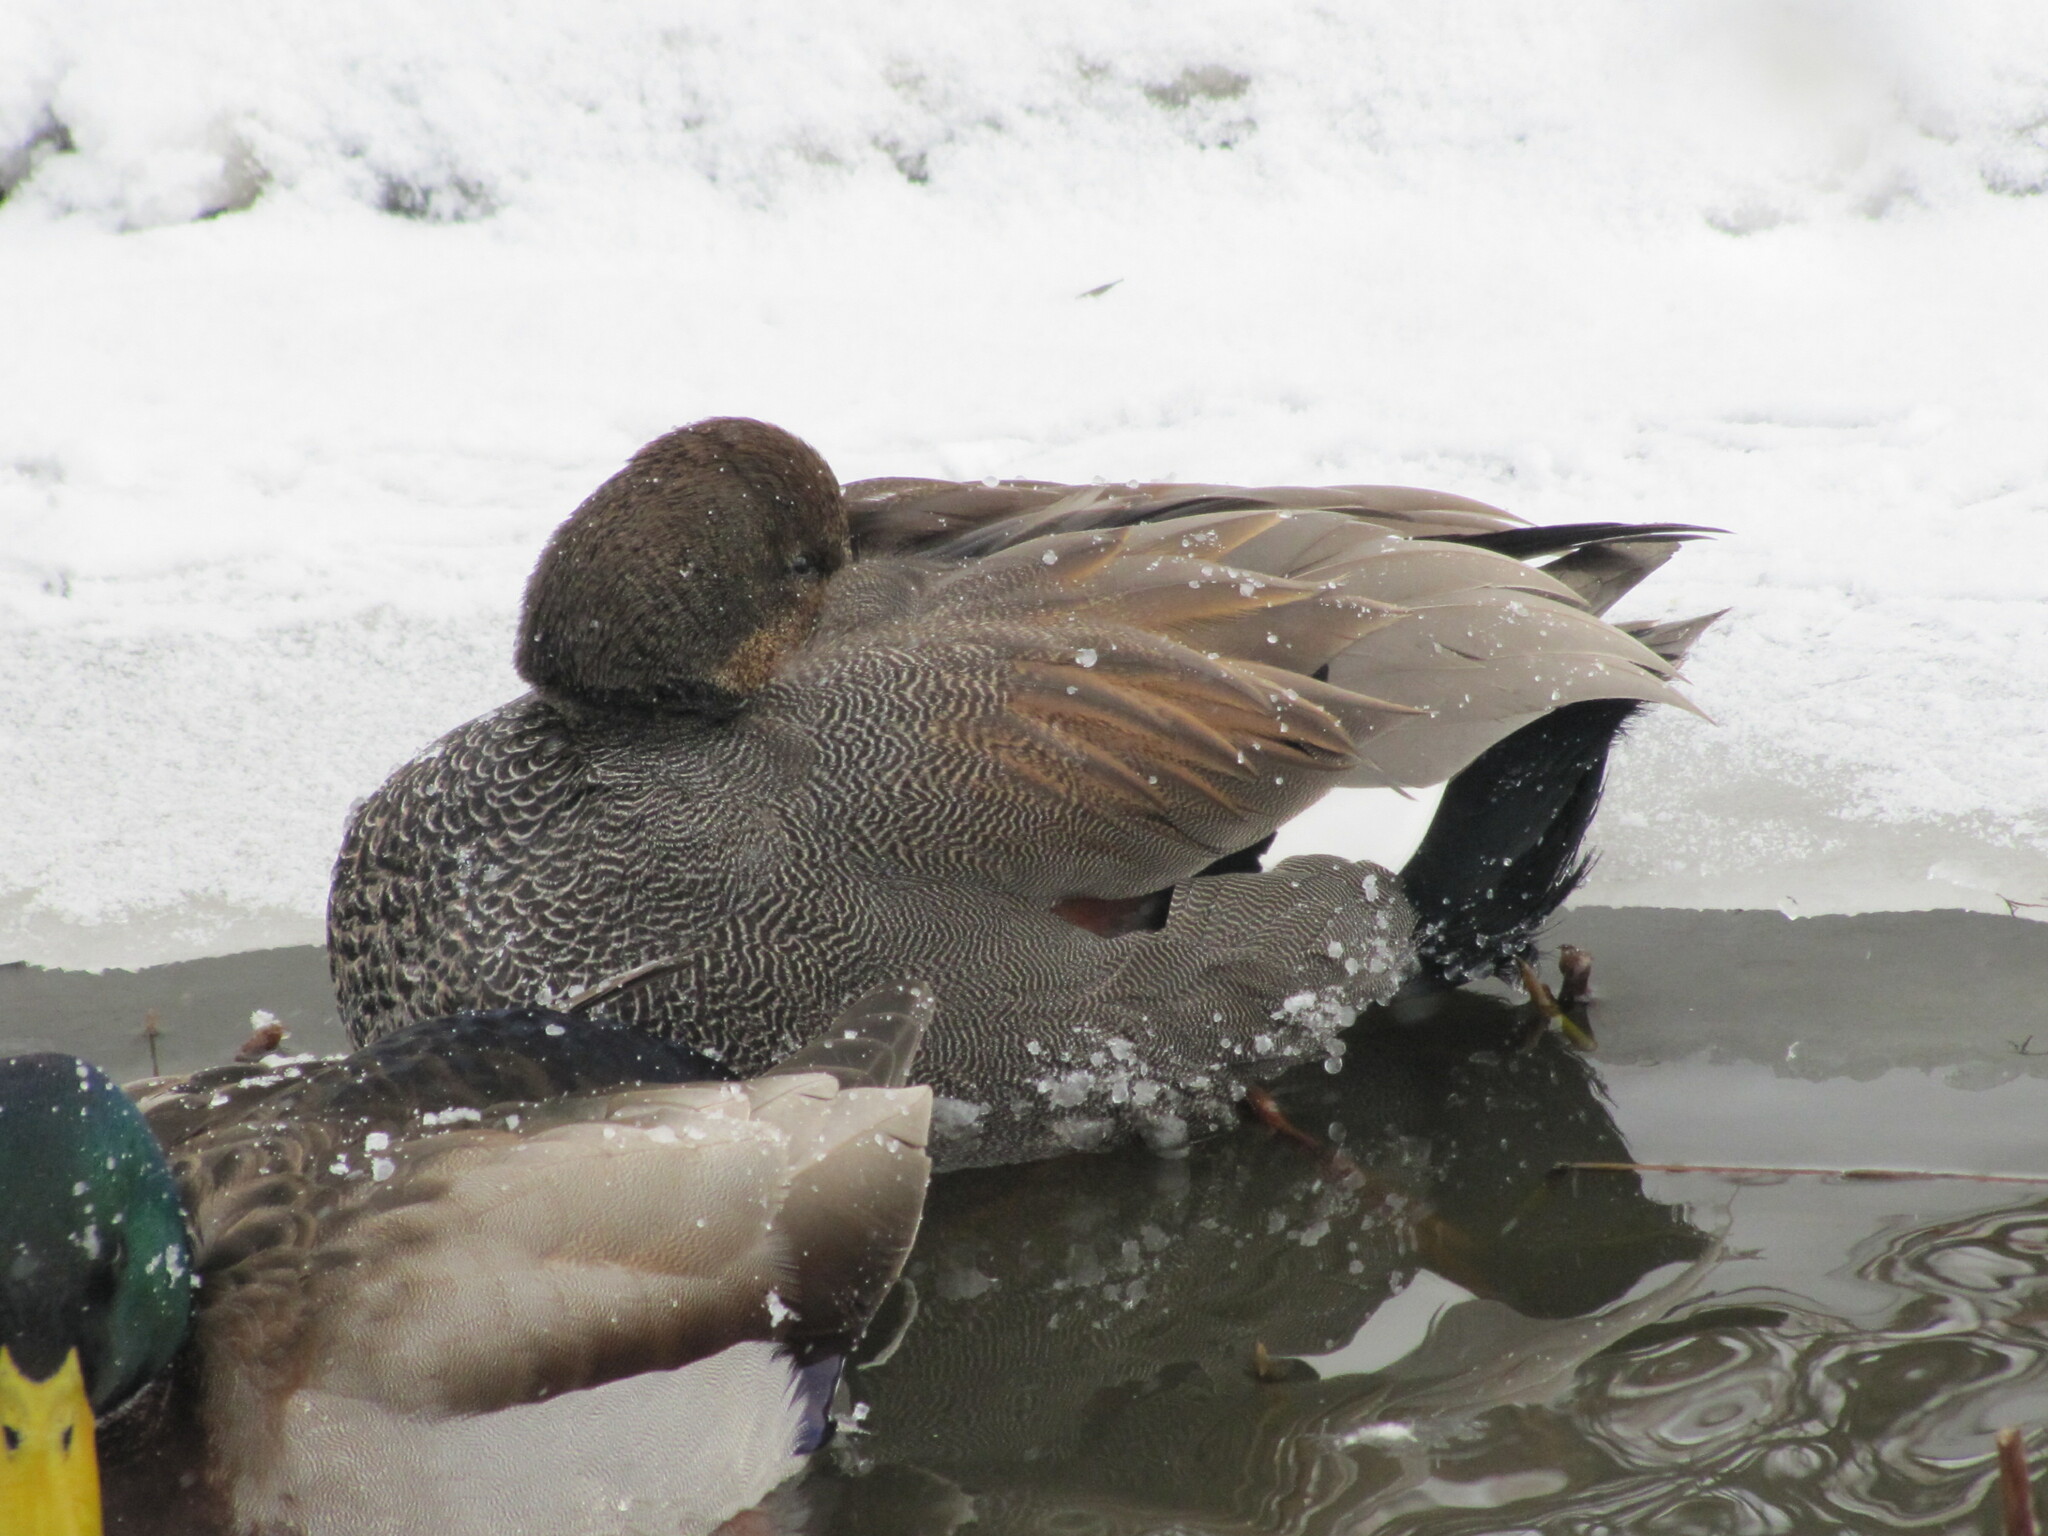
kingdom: Animalia
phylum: Chordata
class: Aves
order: Anseriformes
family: Anatidae
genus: Mareca
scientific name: Mareca strepera
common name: Gadwall
